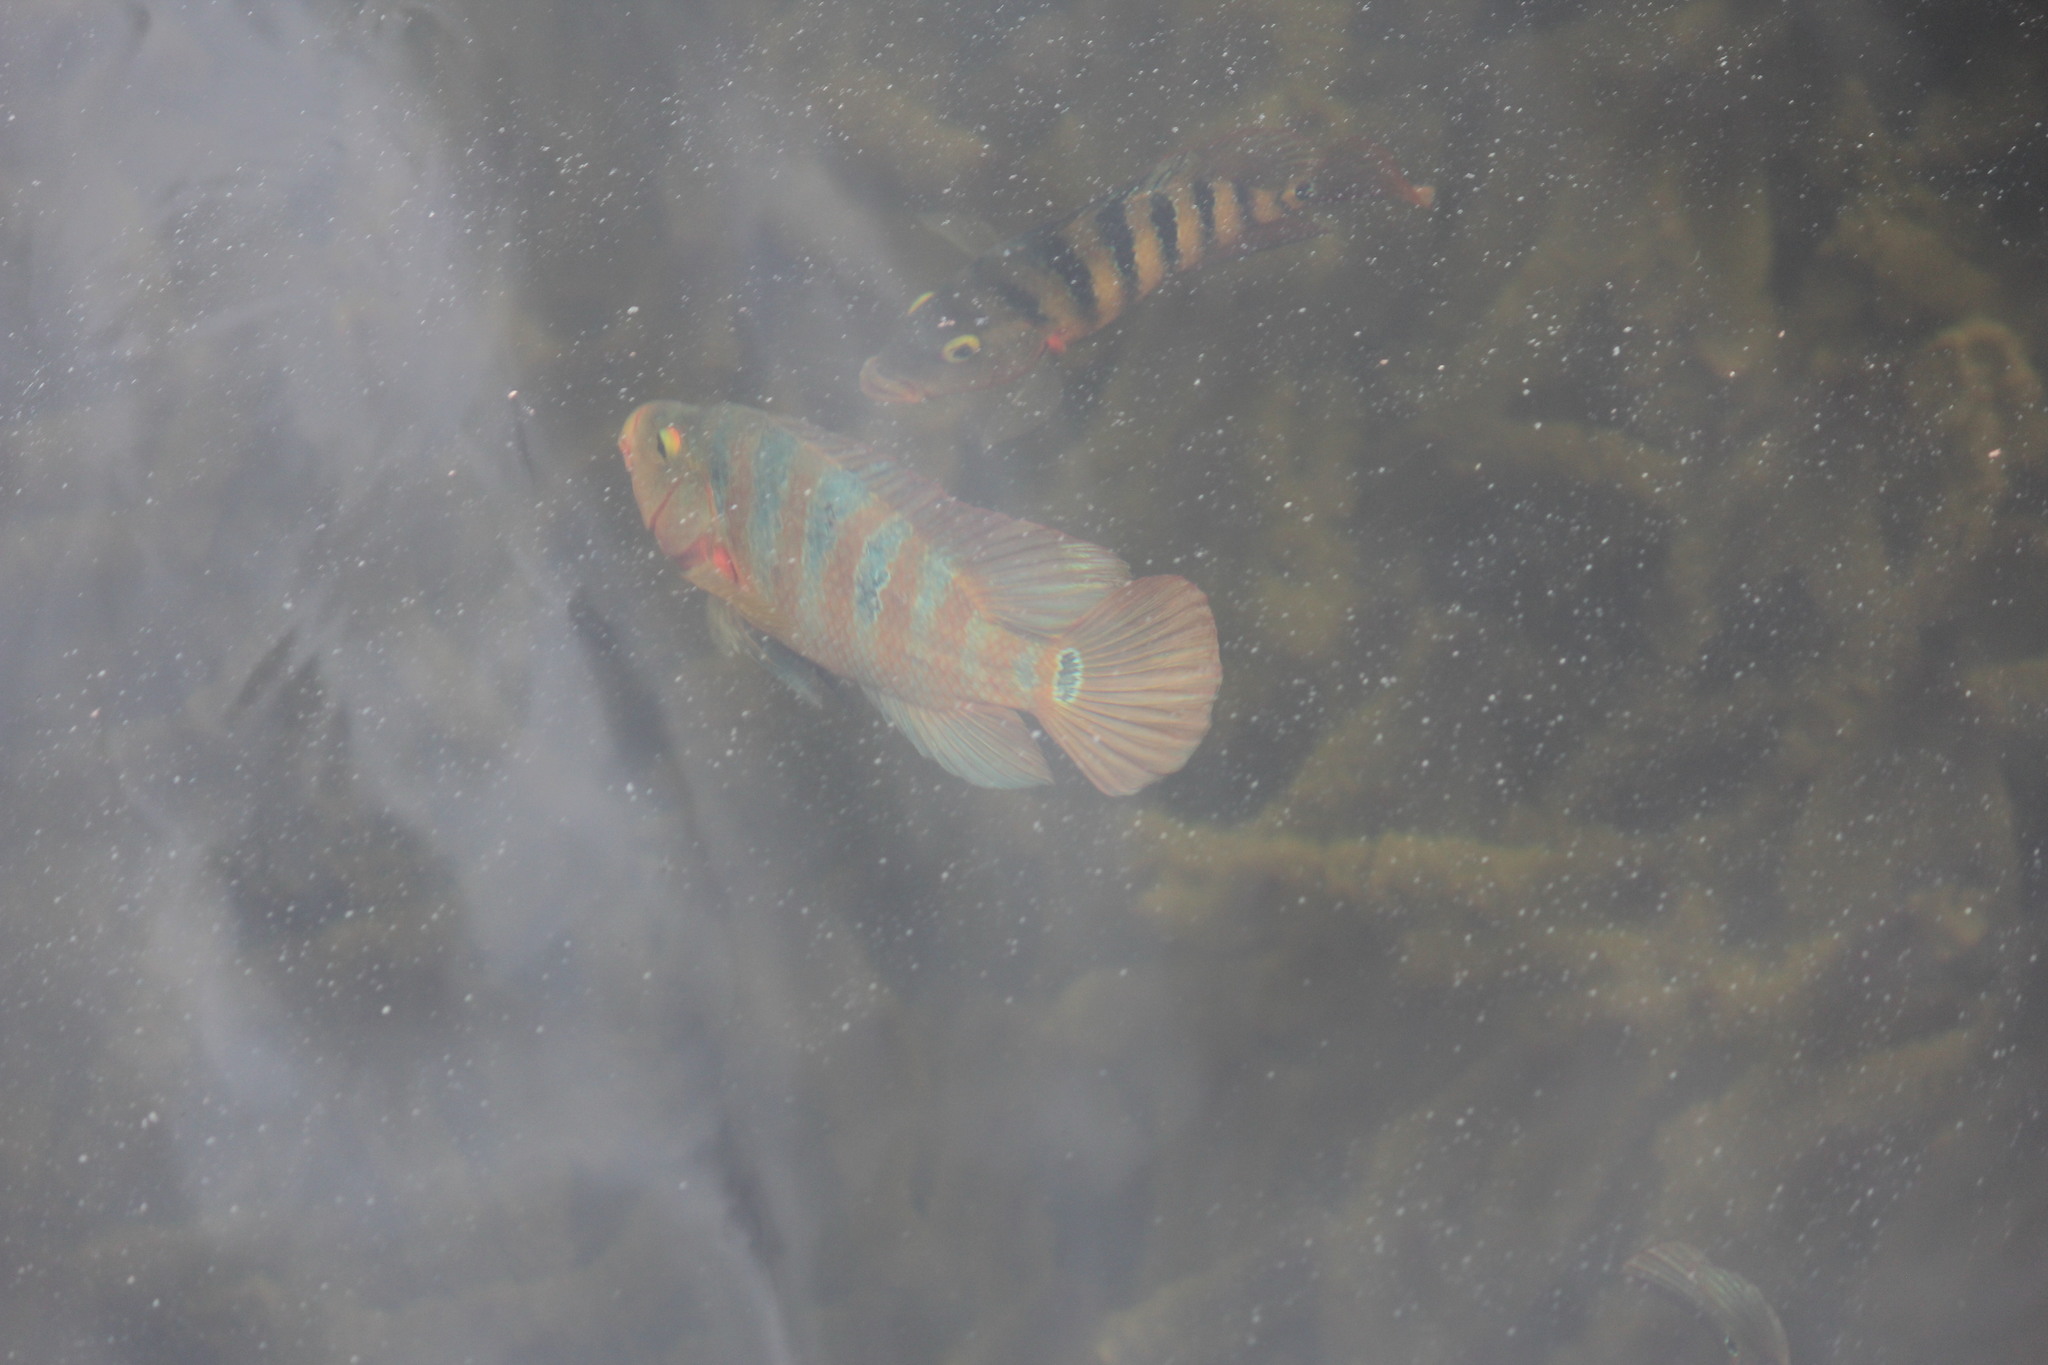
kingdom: Animalia
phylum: Chordata
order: Perciformes
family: Cichlidae
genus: Mayaheros
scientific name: Mayaheros urophthalmus
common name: Mayan cichlid
